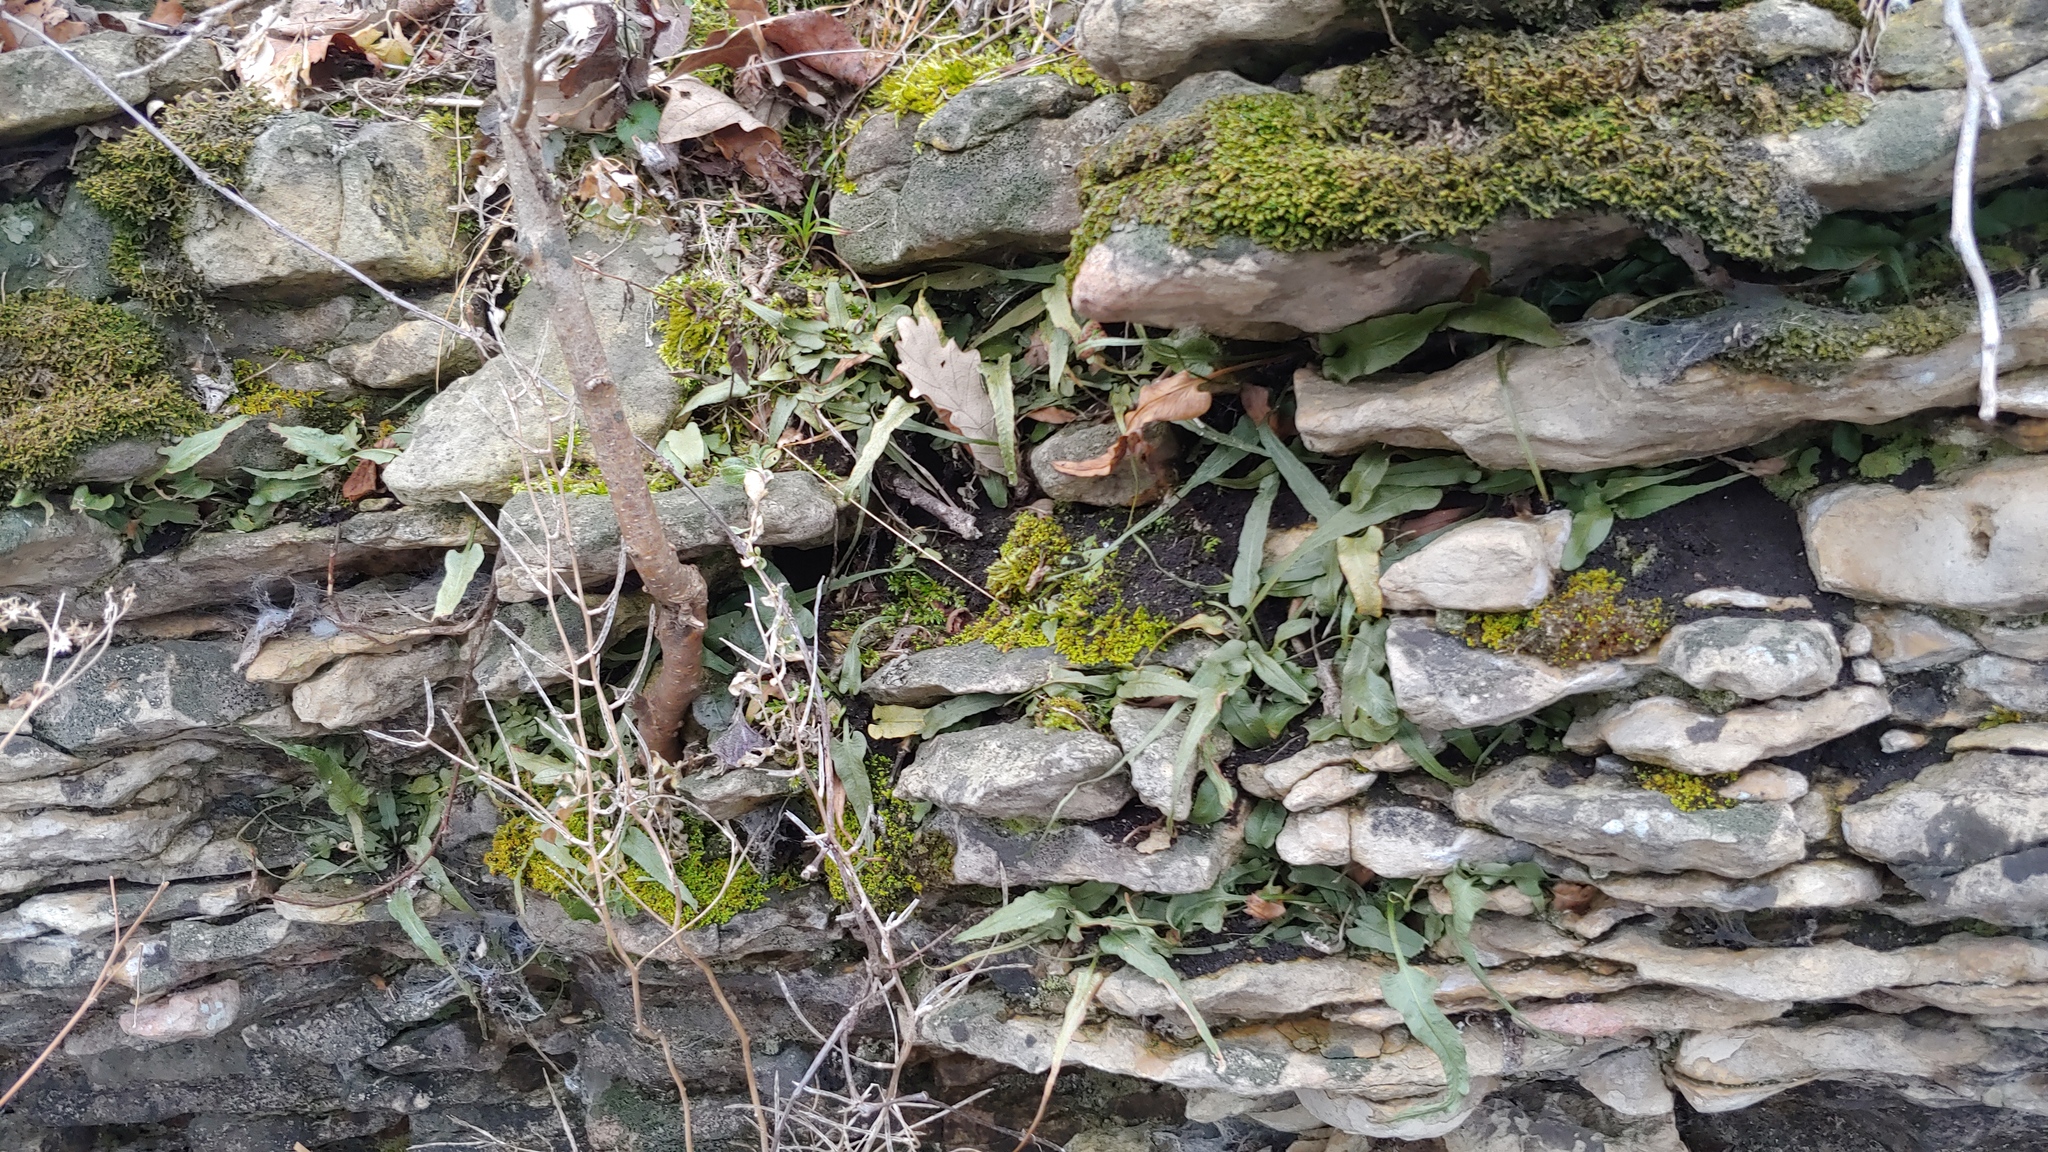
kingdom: Plantae
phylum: Tracheophyta
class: Polypodiopsida
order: Polypodiales
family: Aspleniaceae
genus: Asplenium
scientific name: Asplenium rhizophyllum
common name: Walking fern
